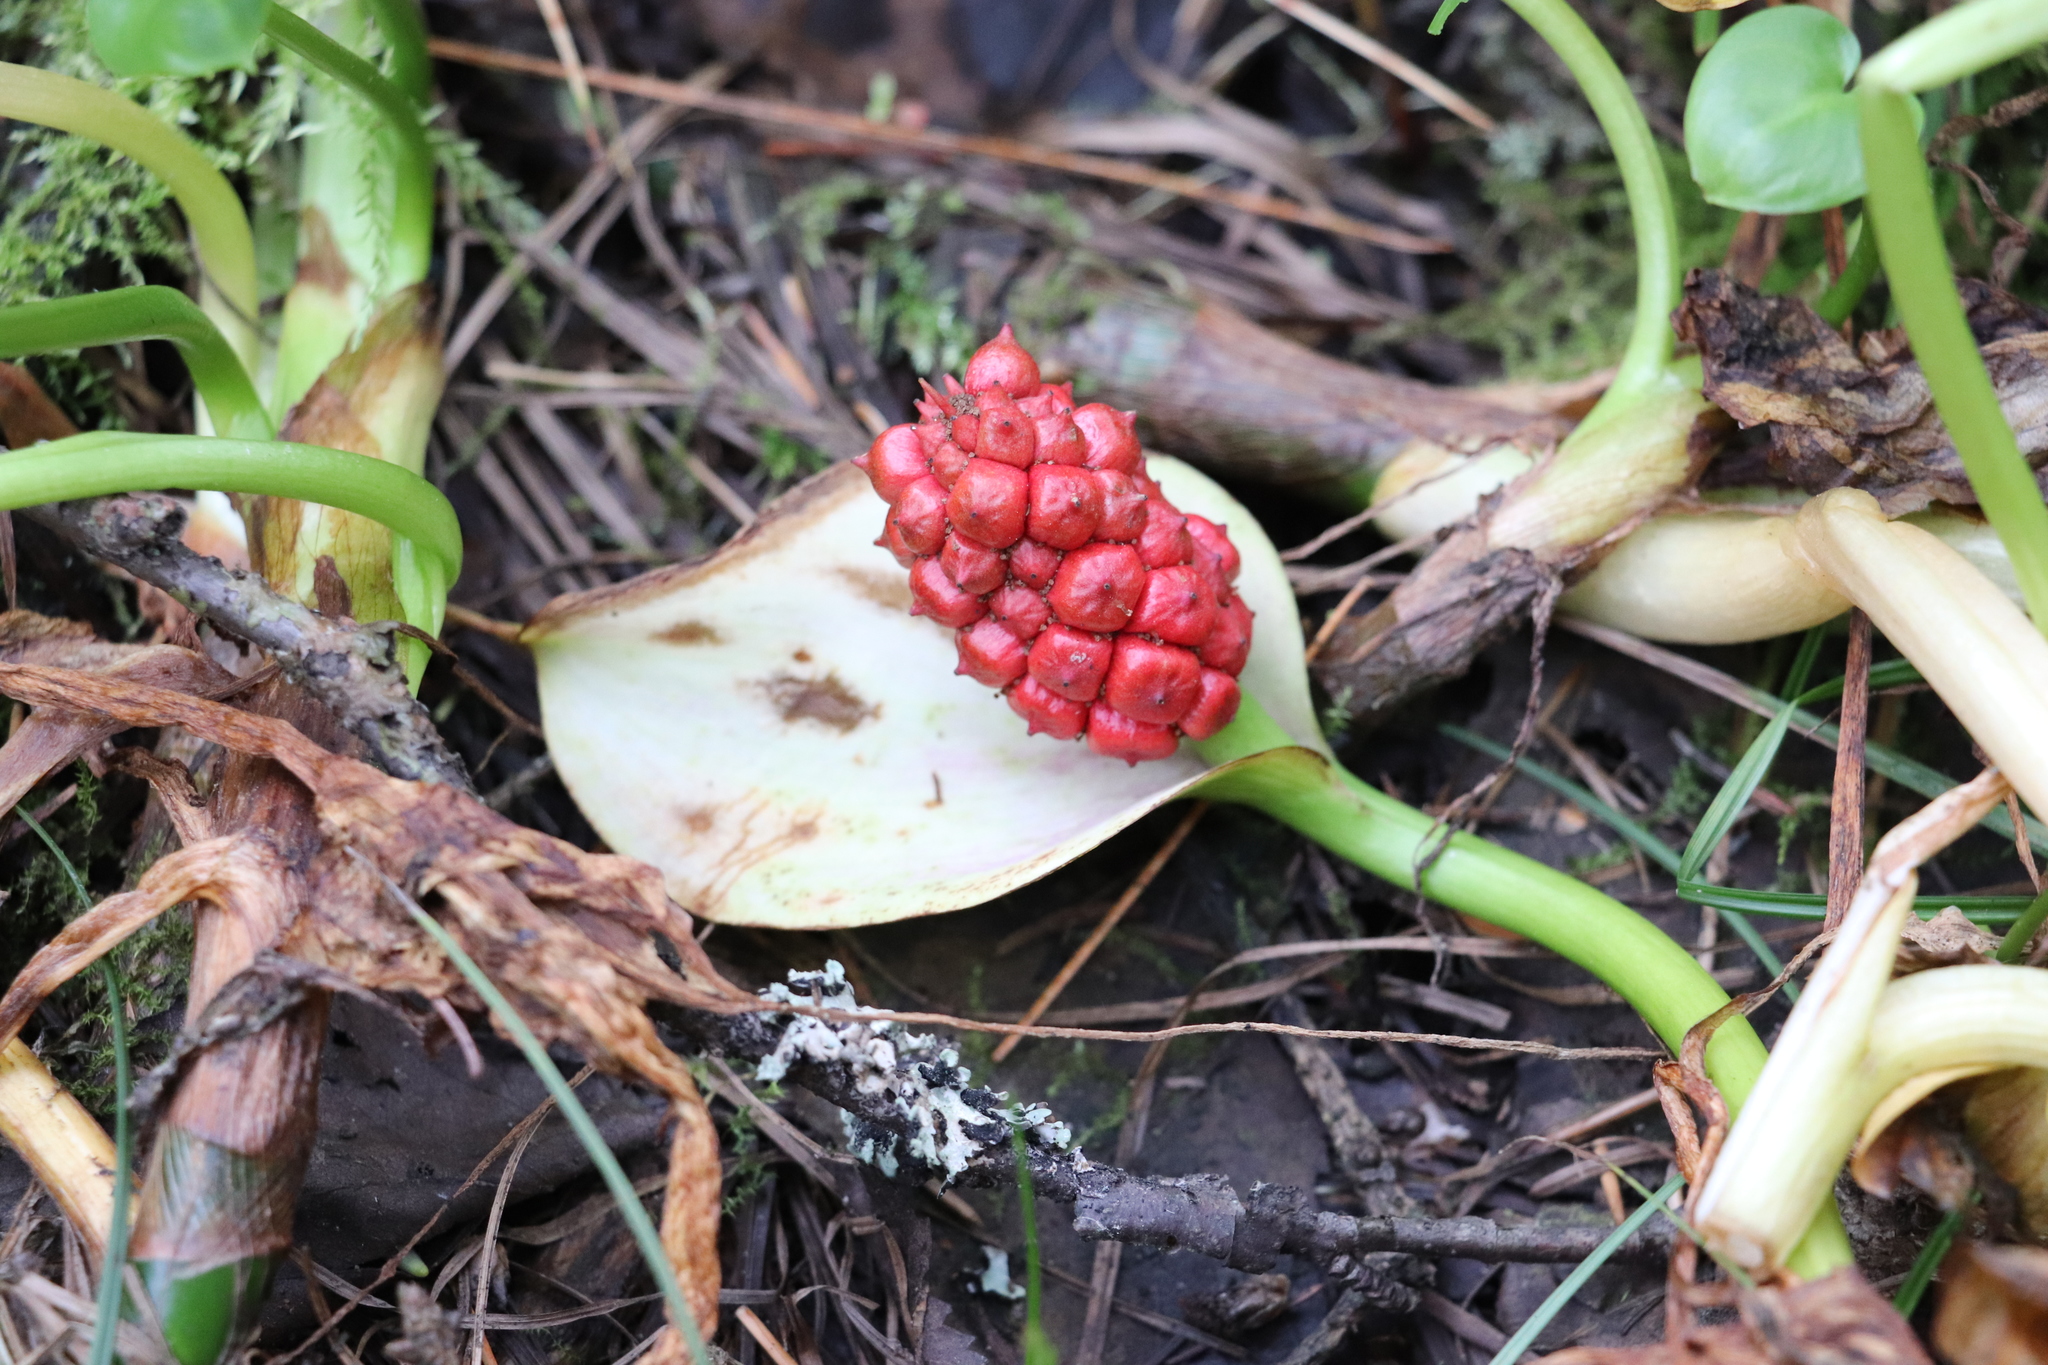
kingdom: Plantae
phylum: Tracheophyta
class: Liliopsida
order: Alismatales
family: Araceae
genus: Calla
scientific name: Calla palustris
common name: Bog arum
